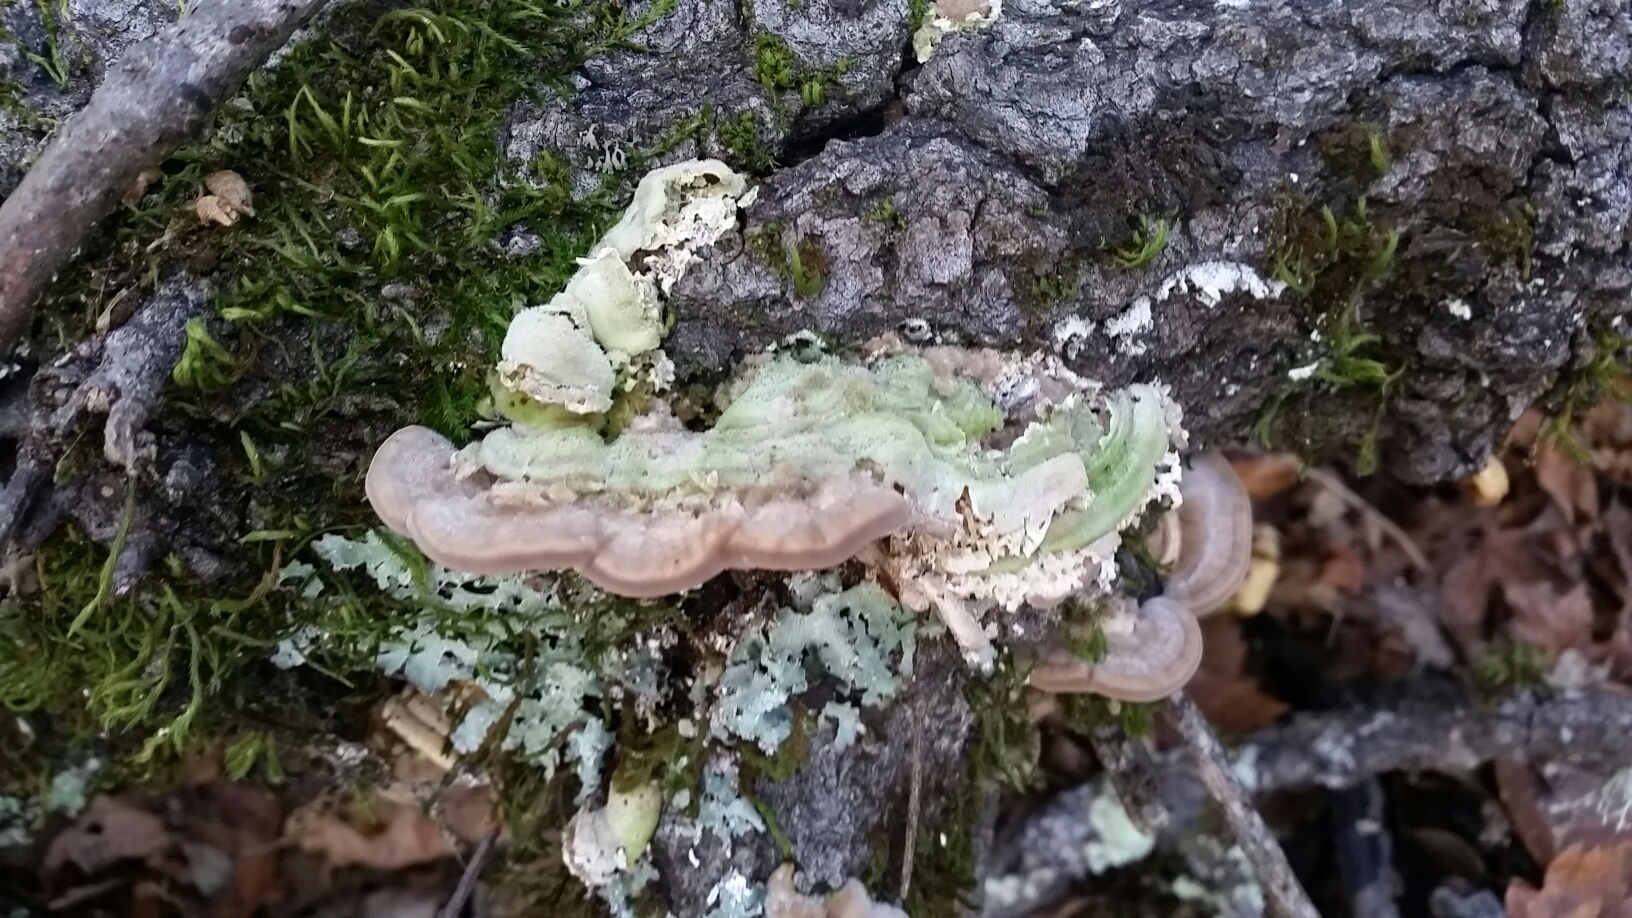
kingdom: Fungi
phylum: Basidiomycota
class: Agaricomycetes
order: Polyporales
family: Polyporaceae
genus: Lenzites
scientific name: Lenzites betulinus
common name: Birch mazegill
